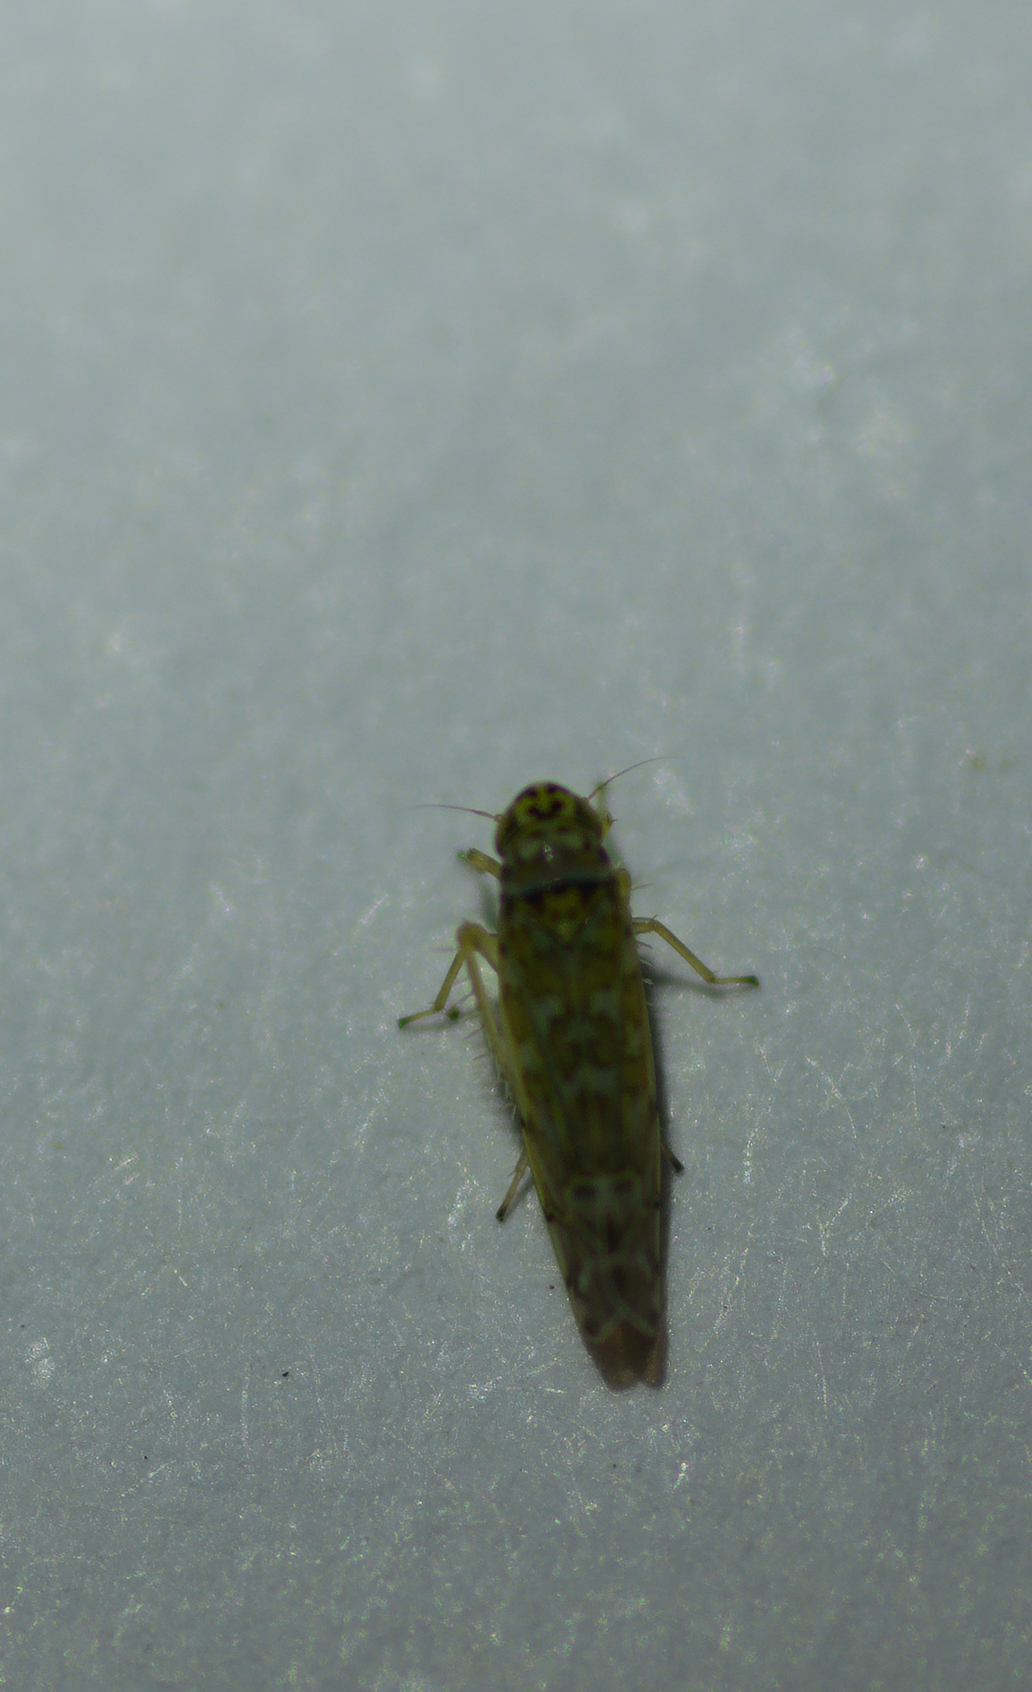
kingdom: Animalia
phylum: Arthropoda
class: Insecta
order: Hemiptera
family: Cicadellidae
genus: Eupteryx
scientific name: Eupteryx decemnotata
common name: Ligurian leafhopper
